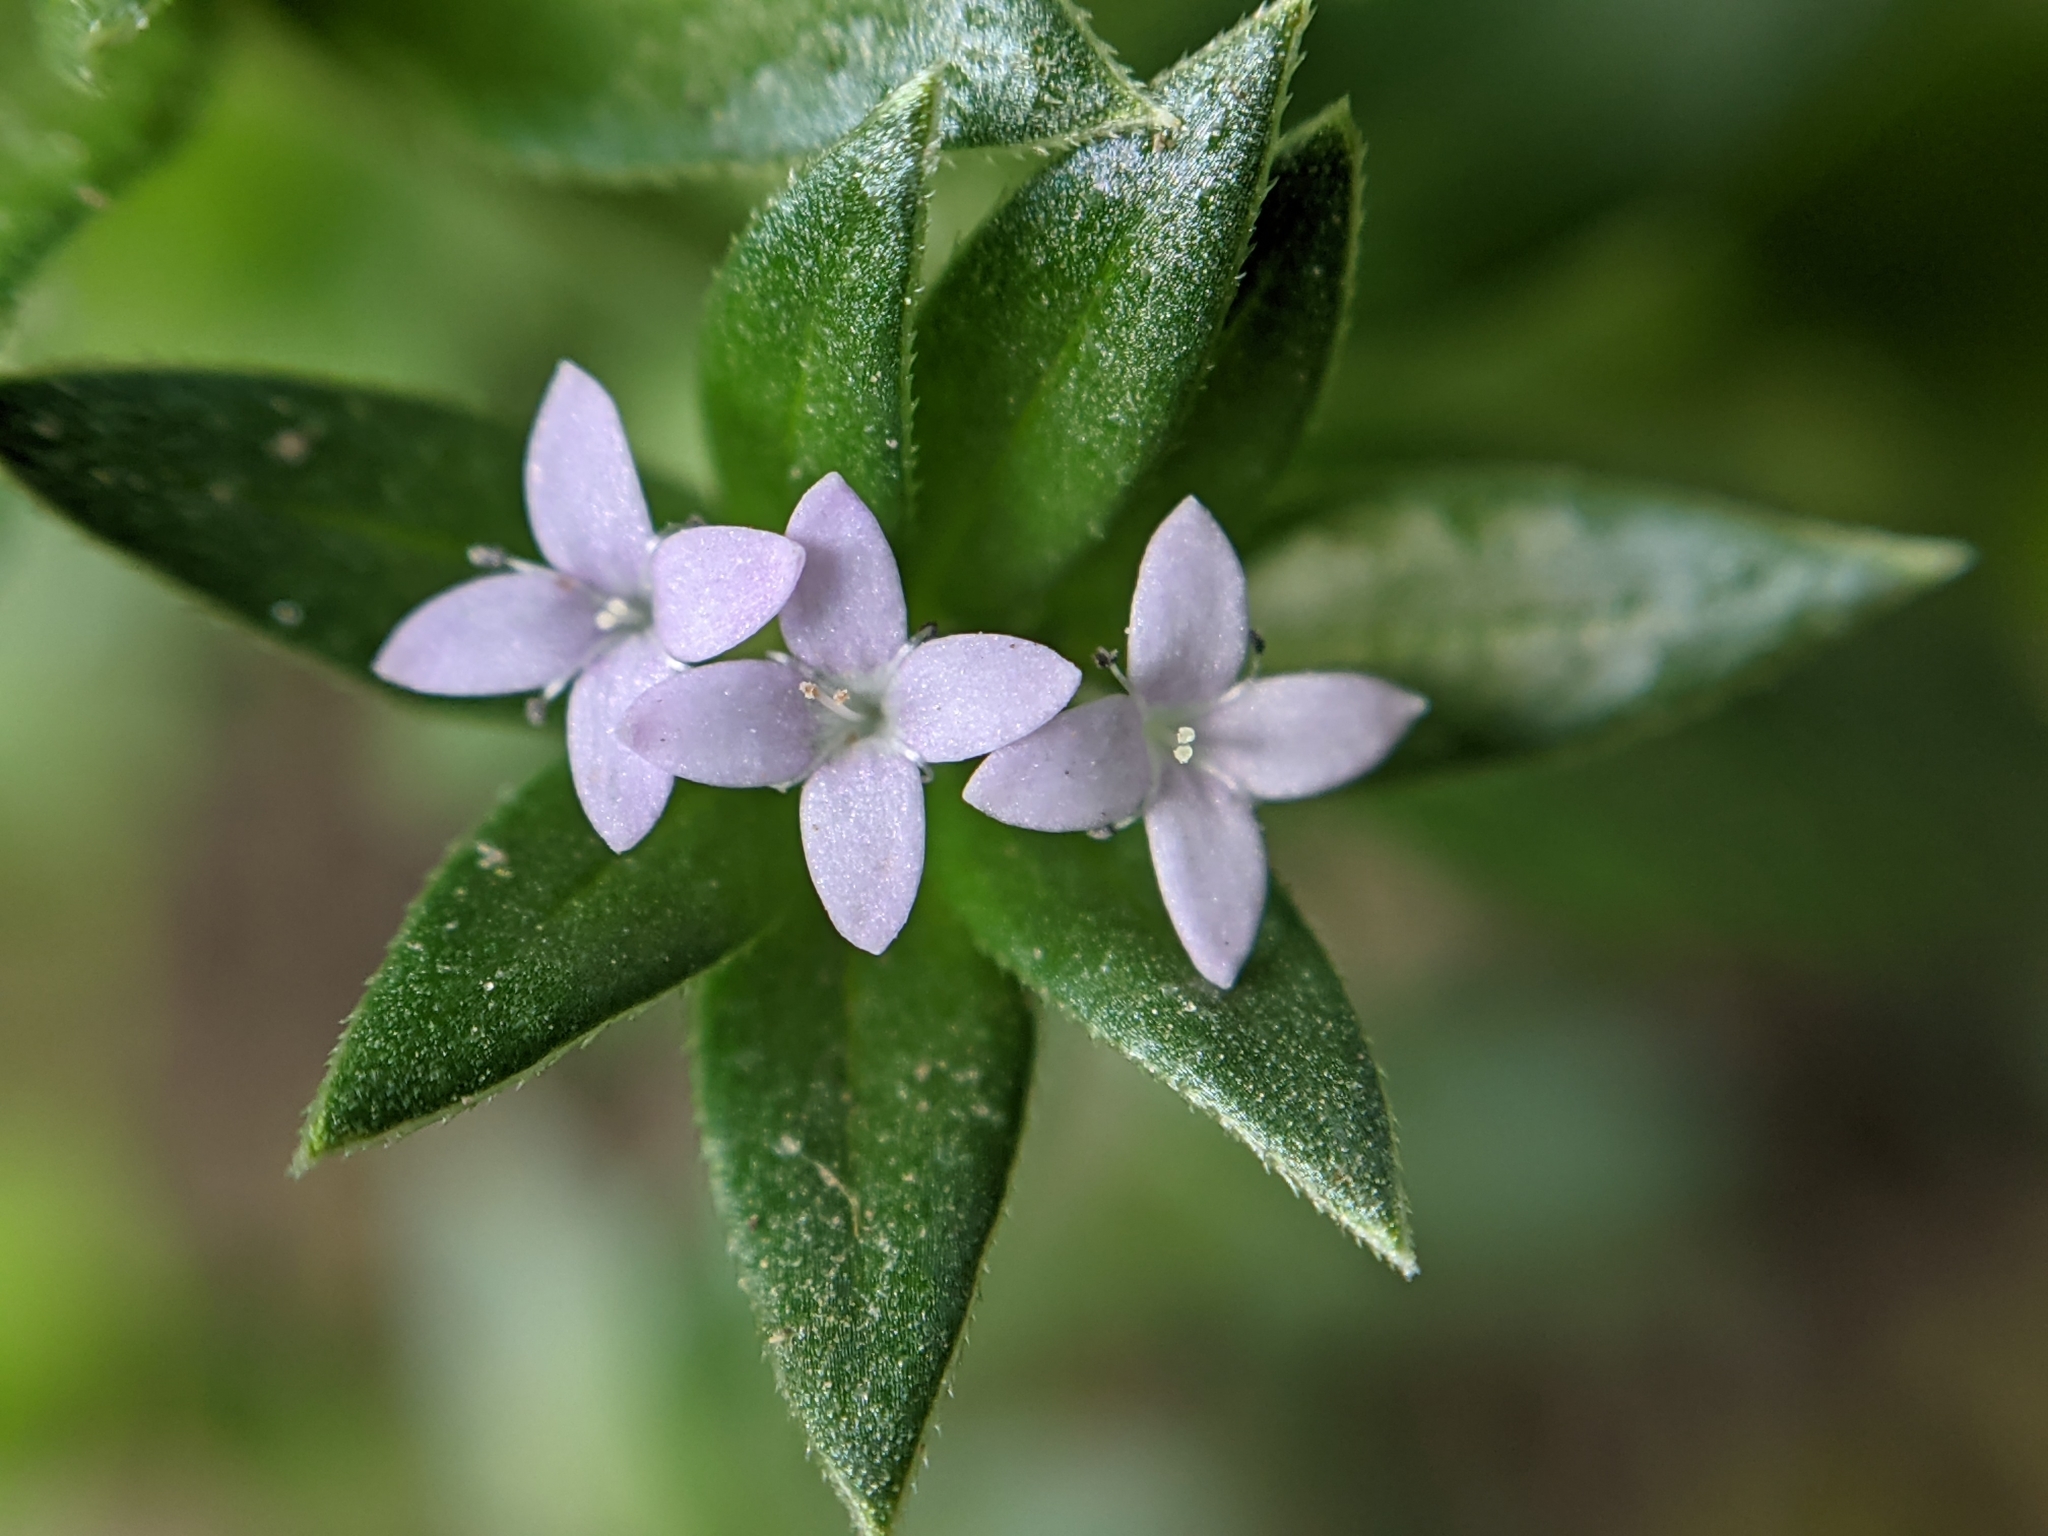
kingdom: Plantae
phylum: Tracheophyta
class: Magnoliopsida
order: Gentianales
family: Rubiaceae
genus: Sherardia
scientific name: Sherardia arvensis
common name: Field madder
